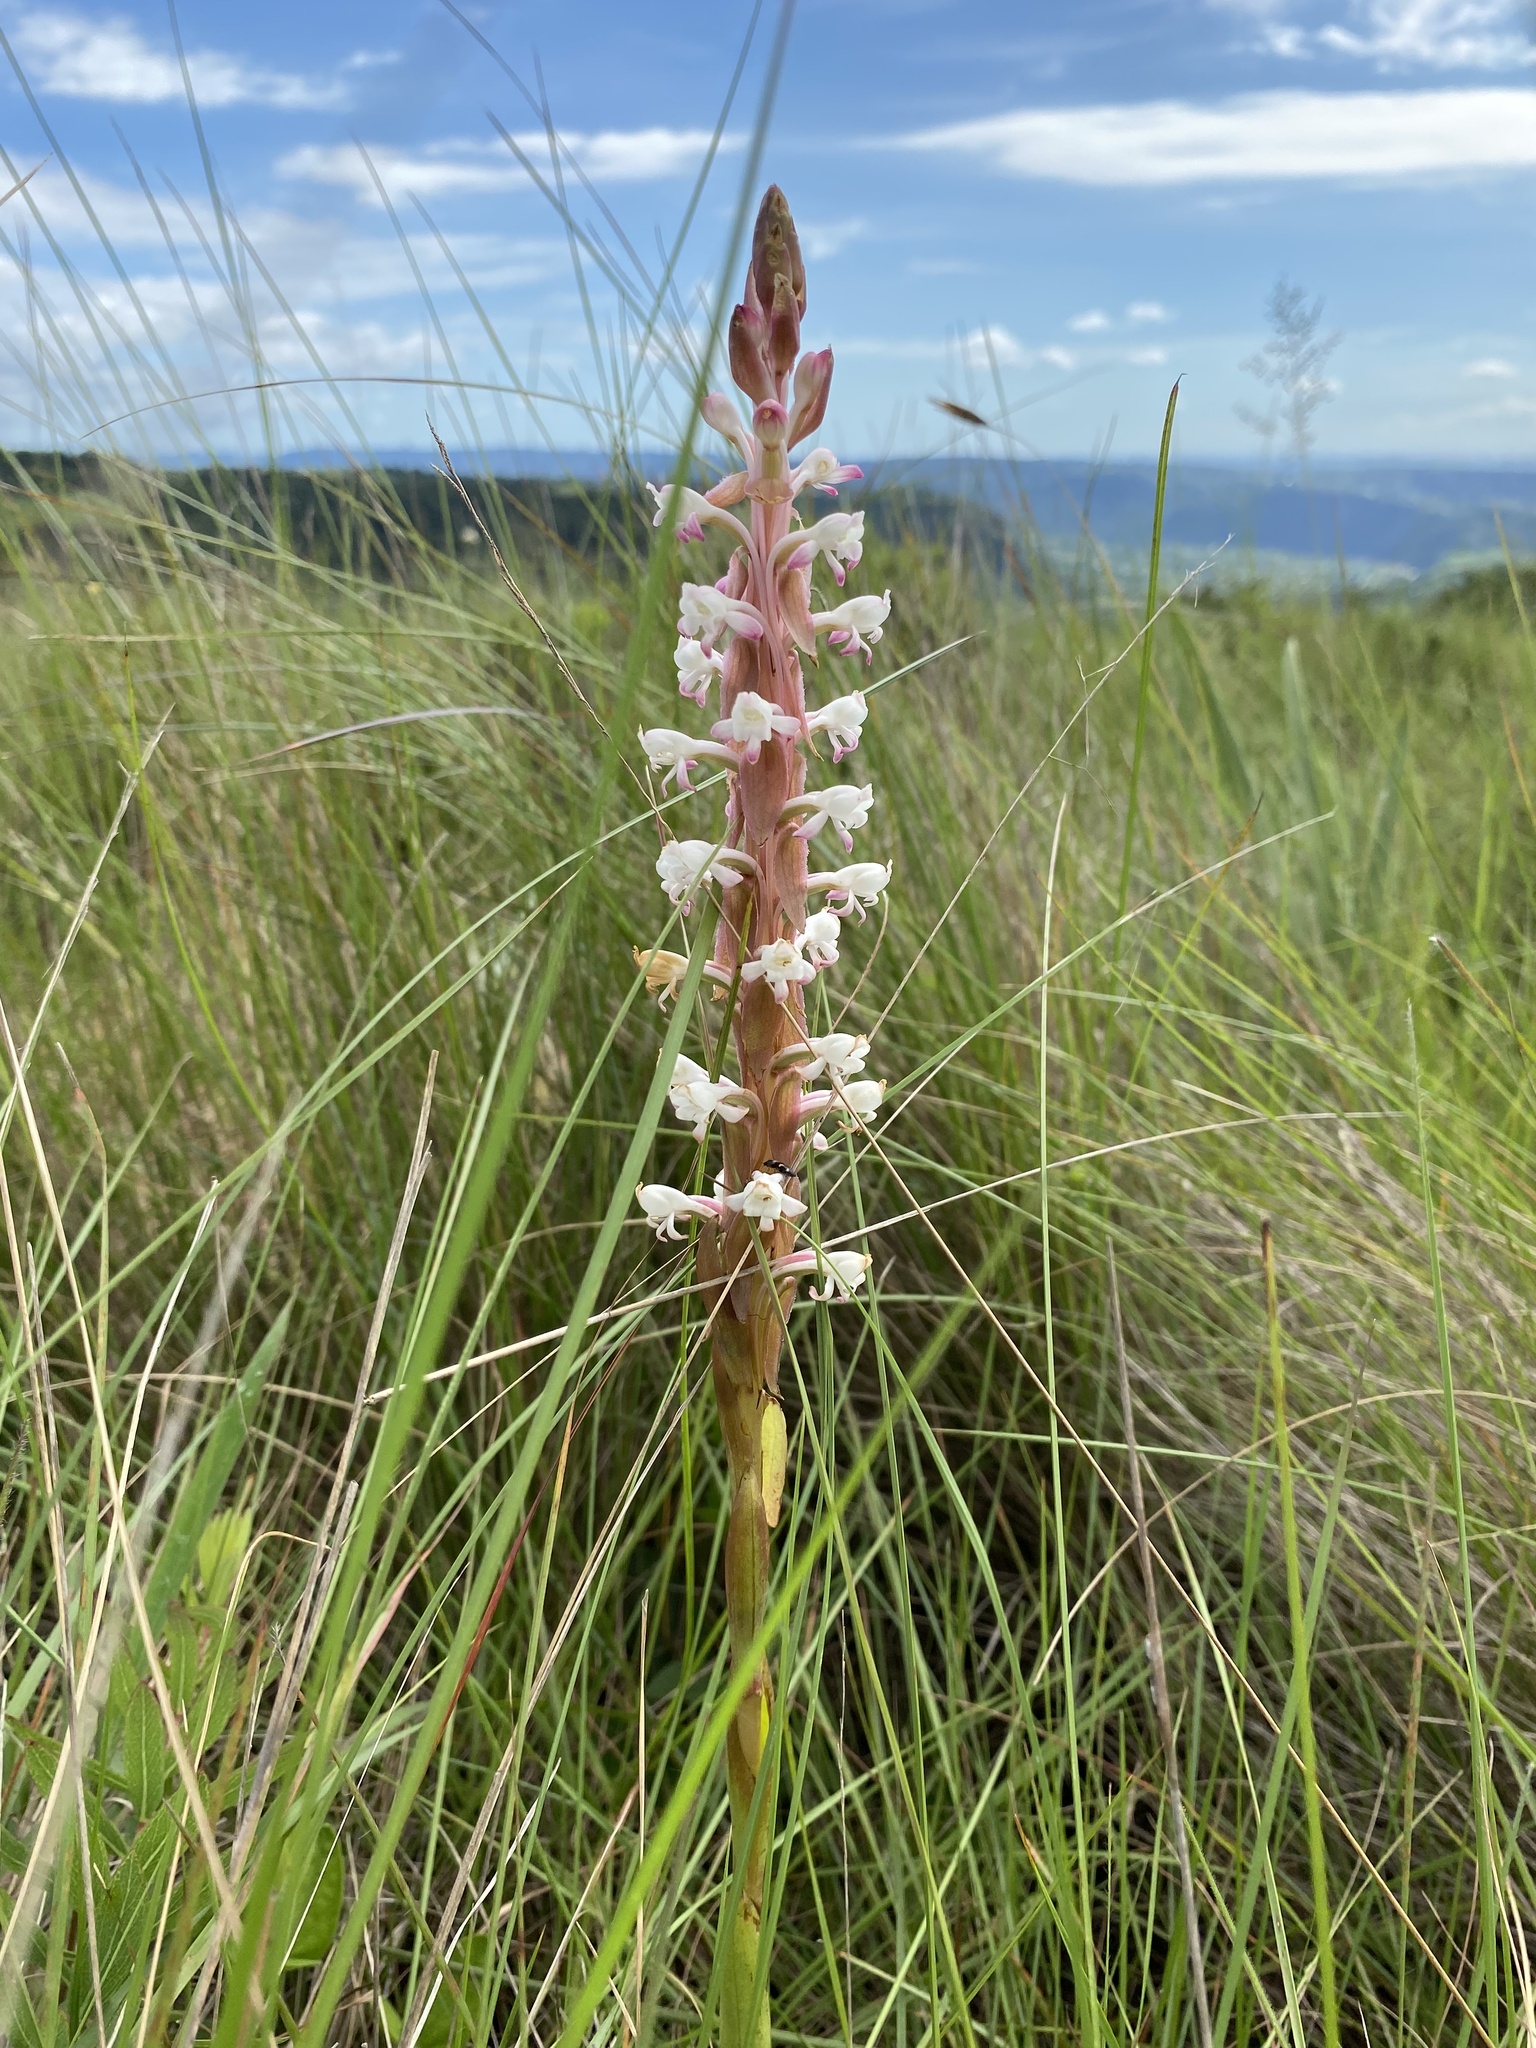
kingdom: Plantae
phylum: Tracheophyta
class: Liliopsida
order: Asparagales
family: Orchidaceae
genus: Satyrium
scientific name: Satyrium longicauda
